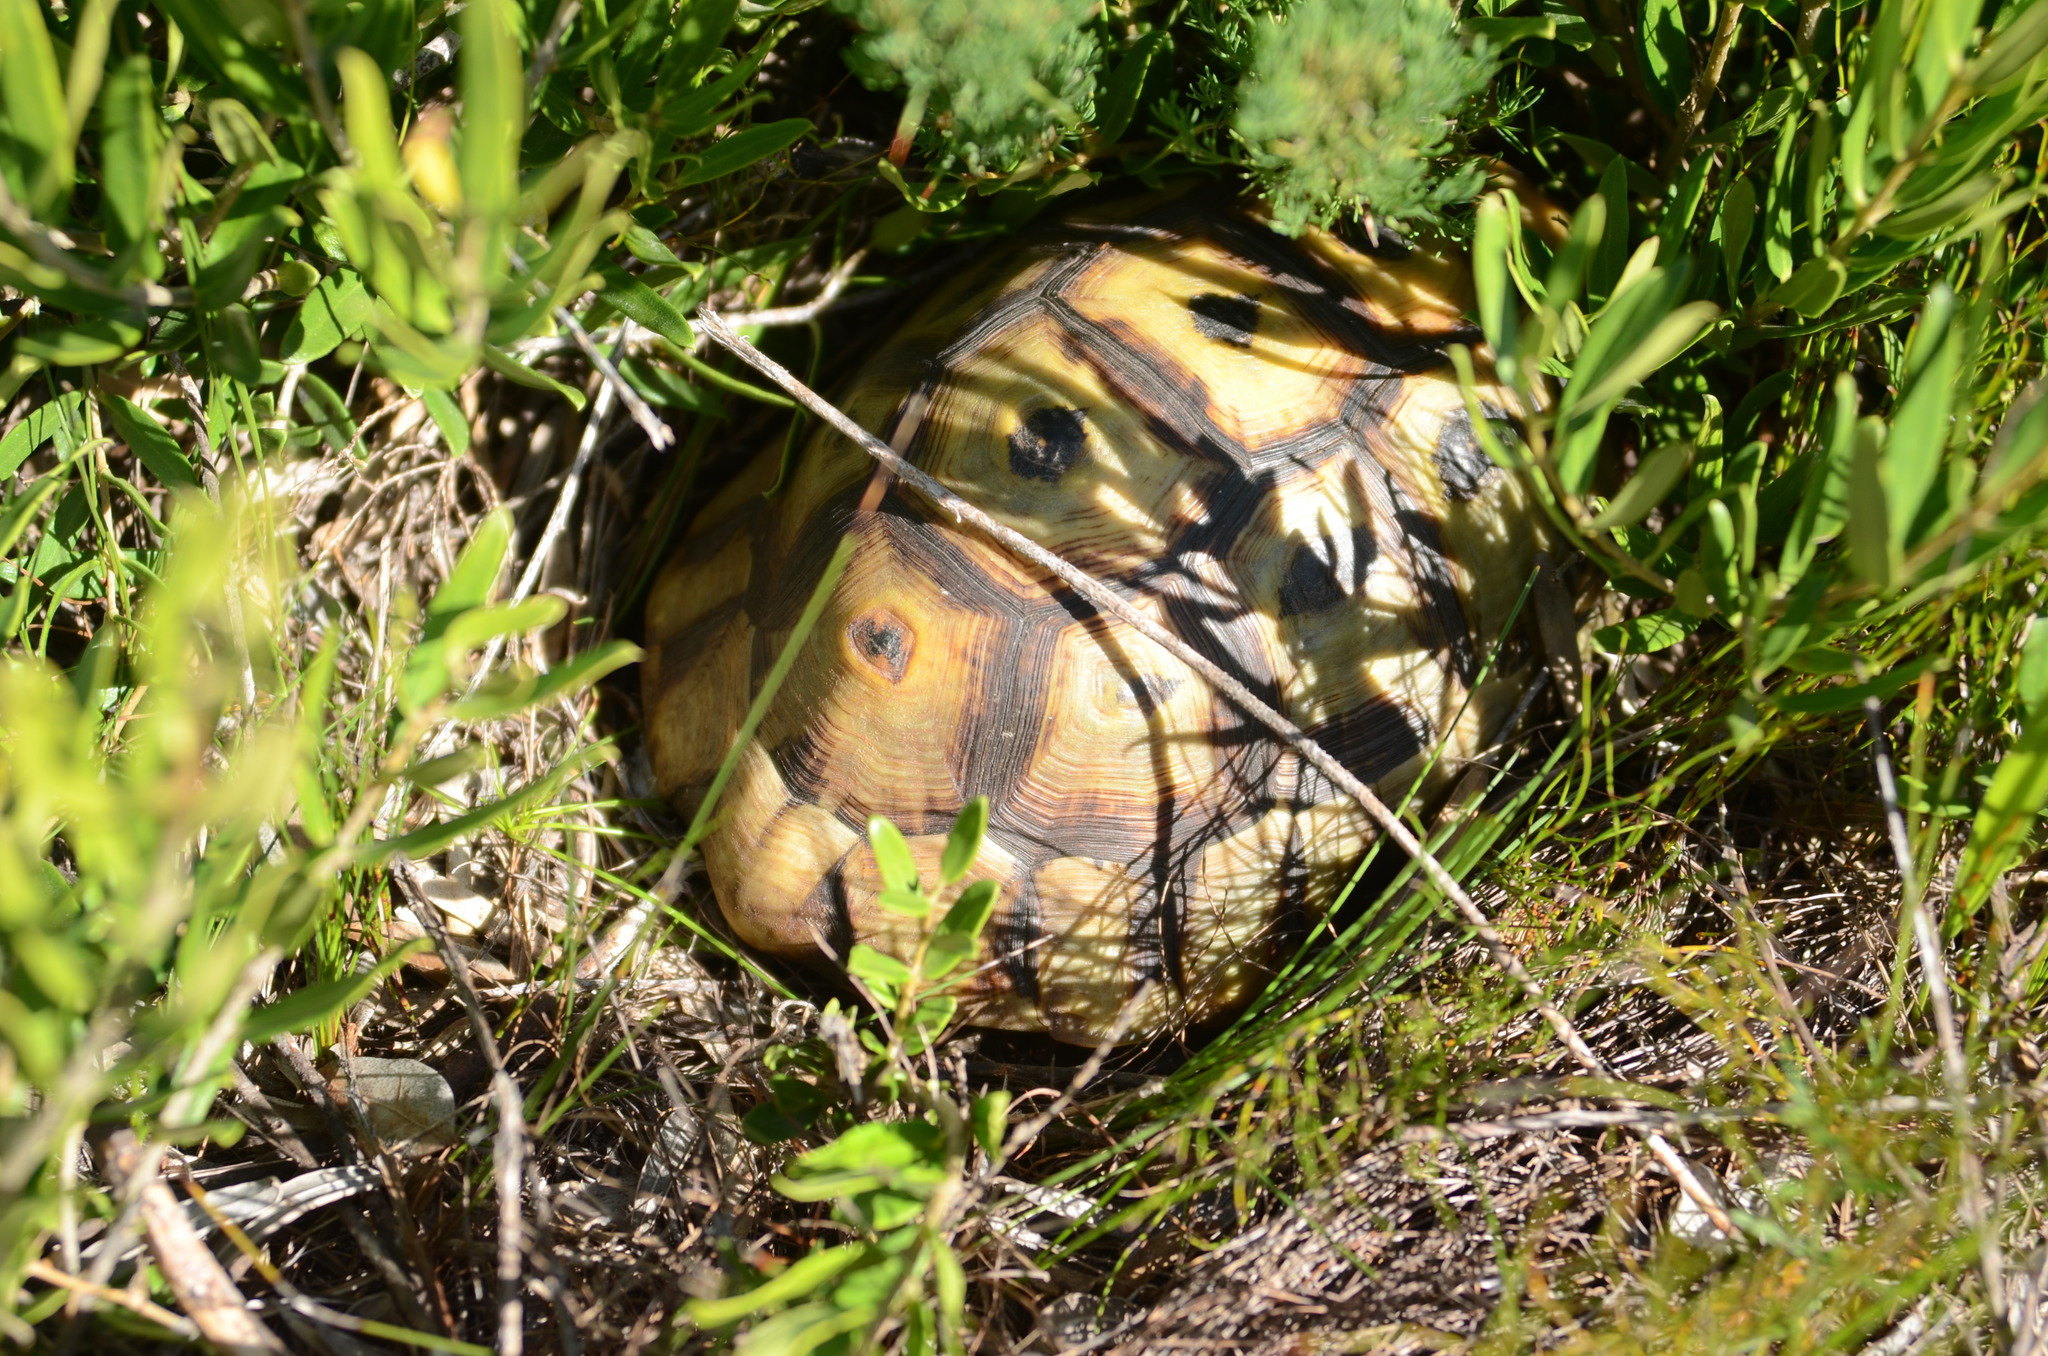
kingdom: Animalia
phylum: Chordata
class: Testudines
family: Testudinidae
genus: Chersina
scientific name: Chersina angulata
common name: South african bowsprit tortoise
